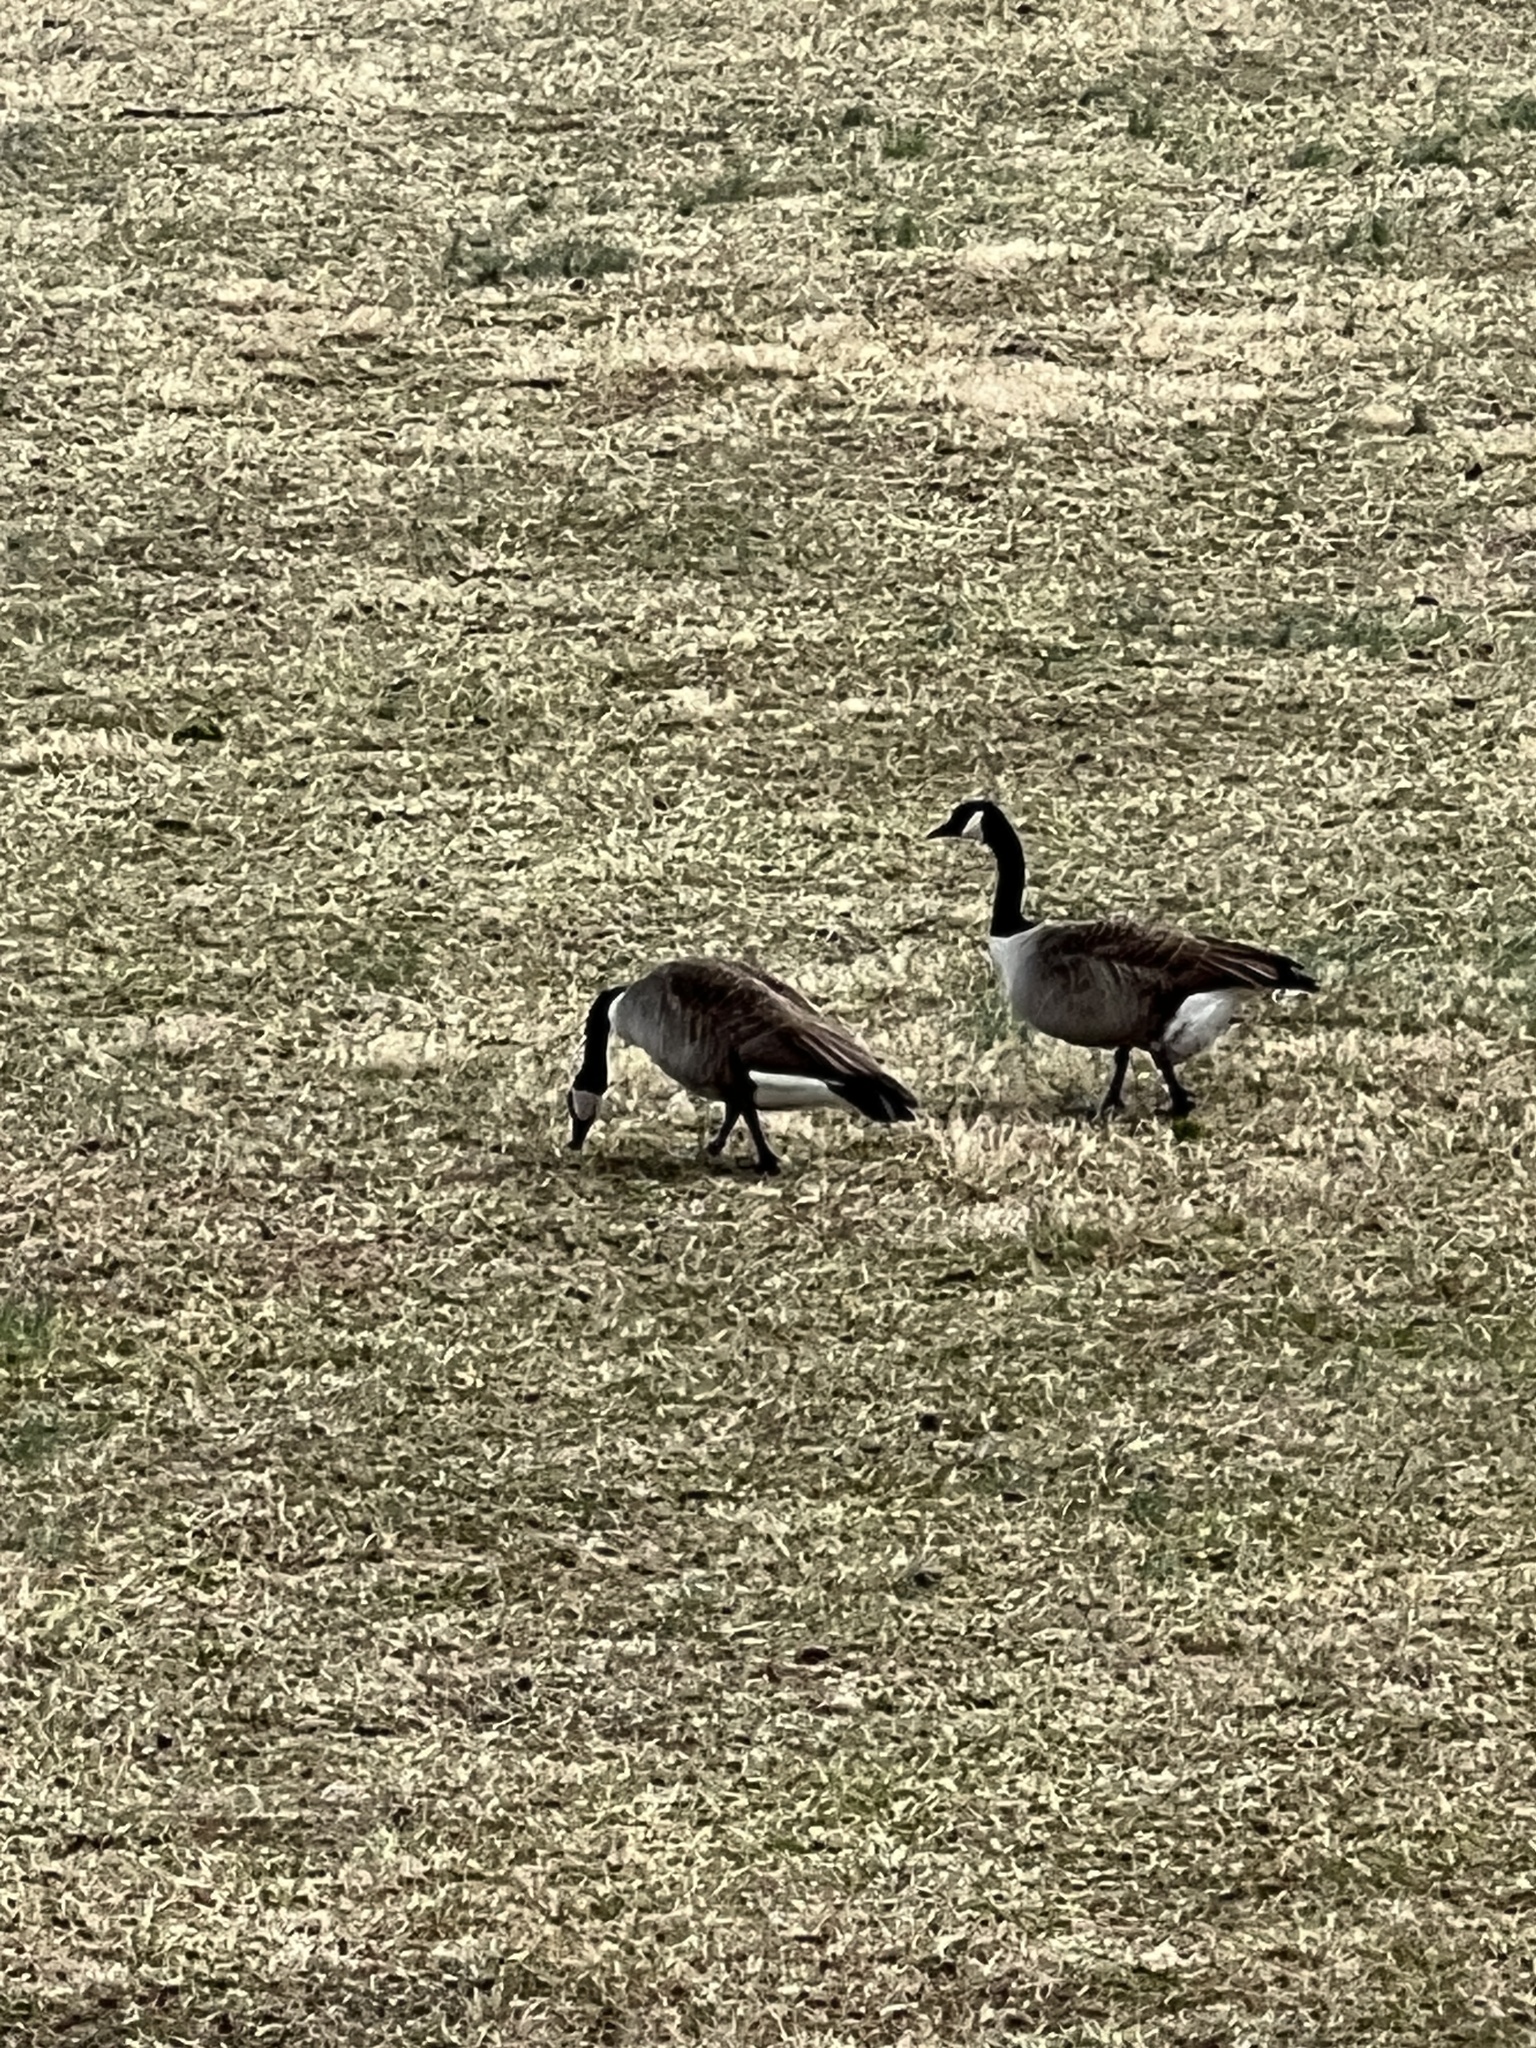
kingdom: Animalia
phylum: Chordata
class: Aves
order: Anseriformes
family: Anatidae
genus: Branta
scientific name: Branta canadensis
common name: Canada goose
